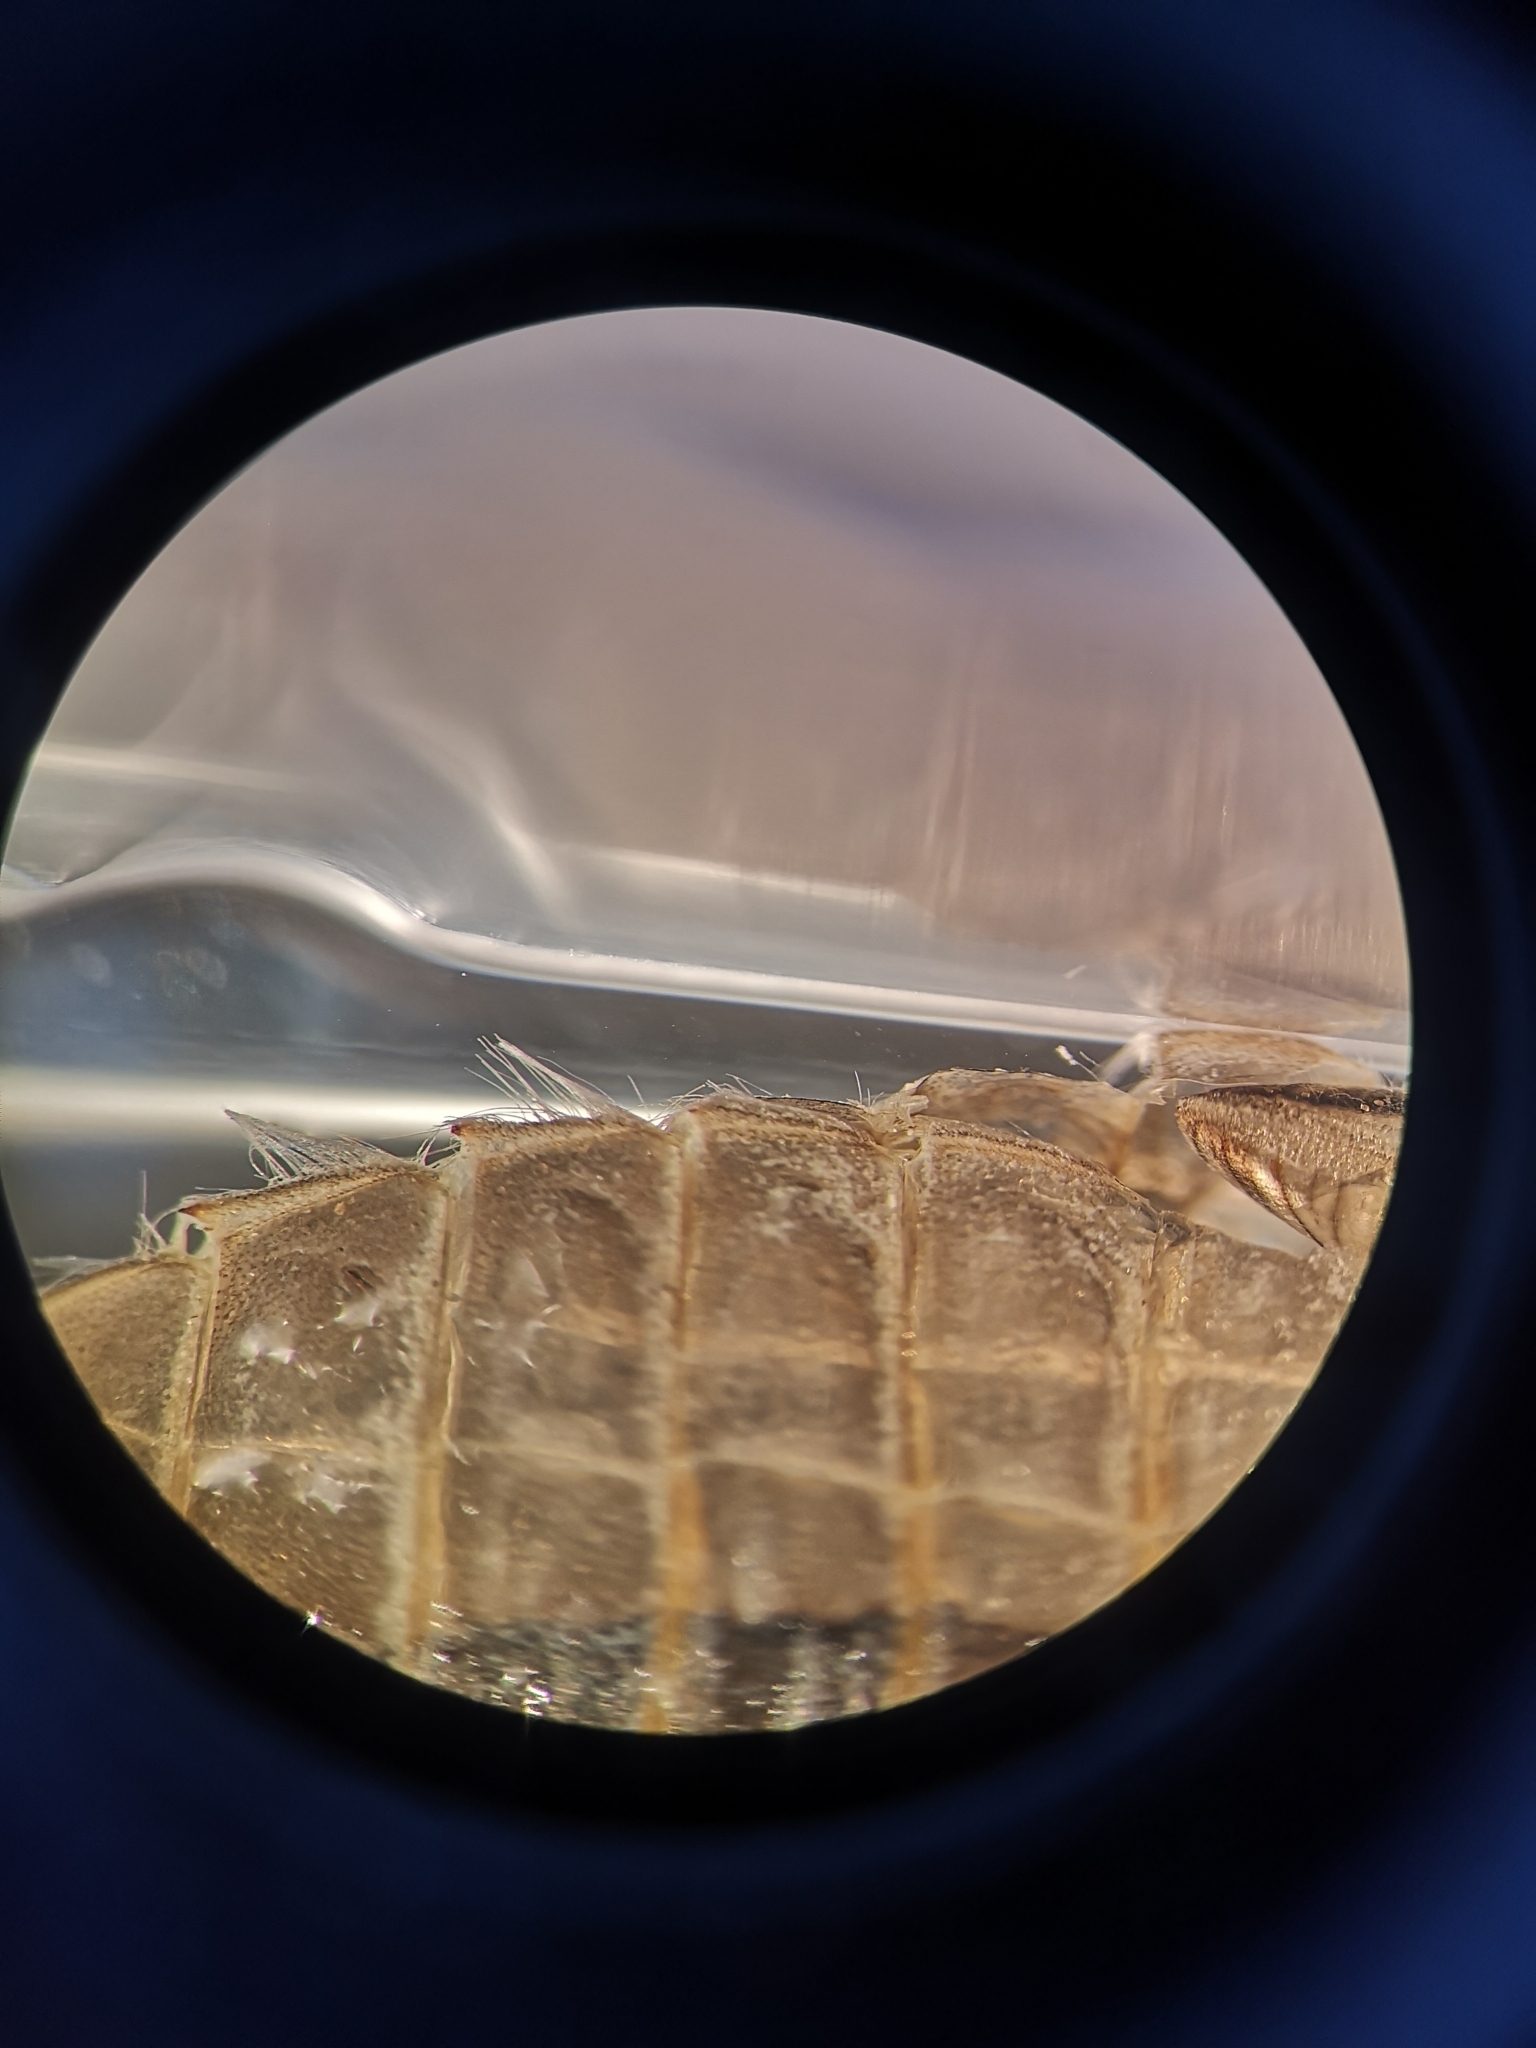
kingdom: Animalia
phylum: Arthropoda
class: Insecta
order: Odonata
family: Gomphidae
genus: Onychogomphus
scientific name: Onychogomphus forcipatus
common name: Small pincertail
